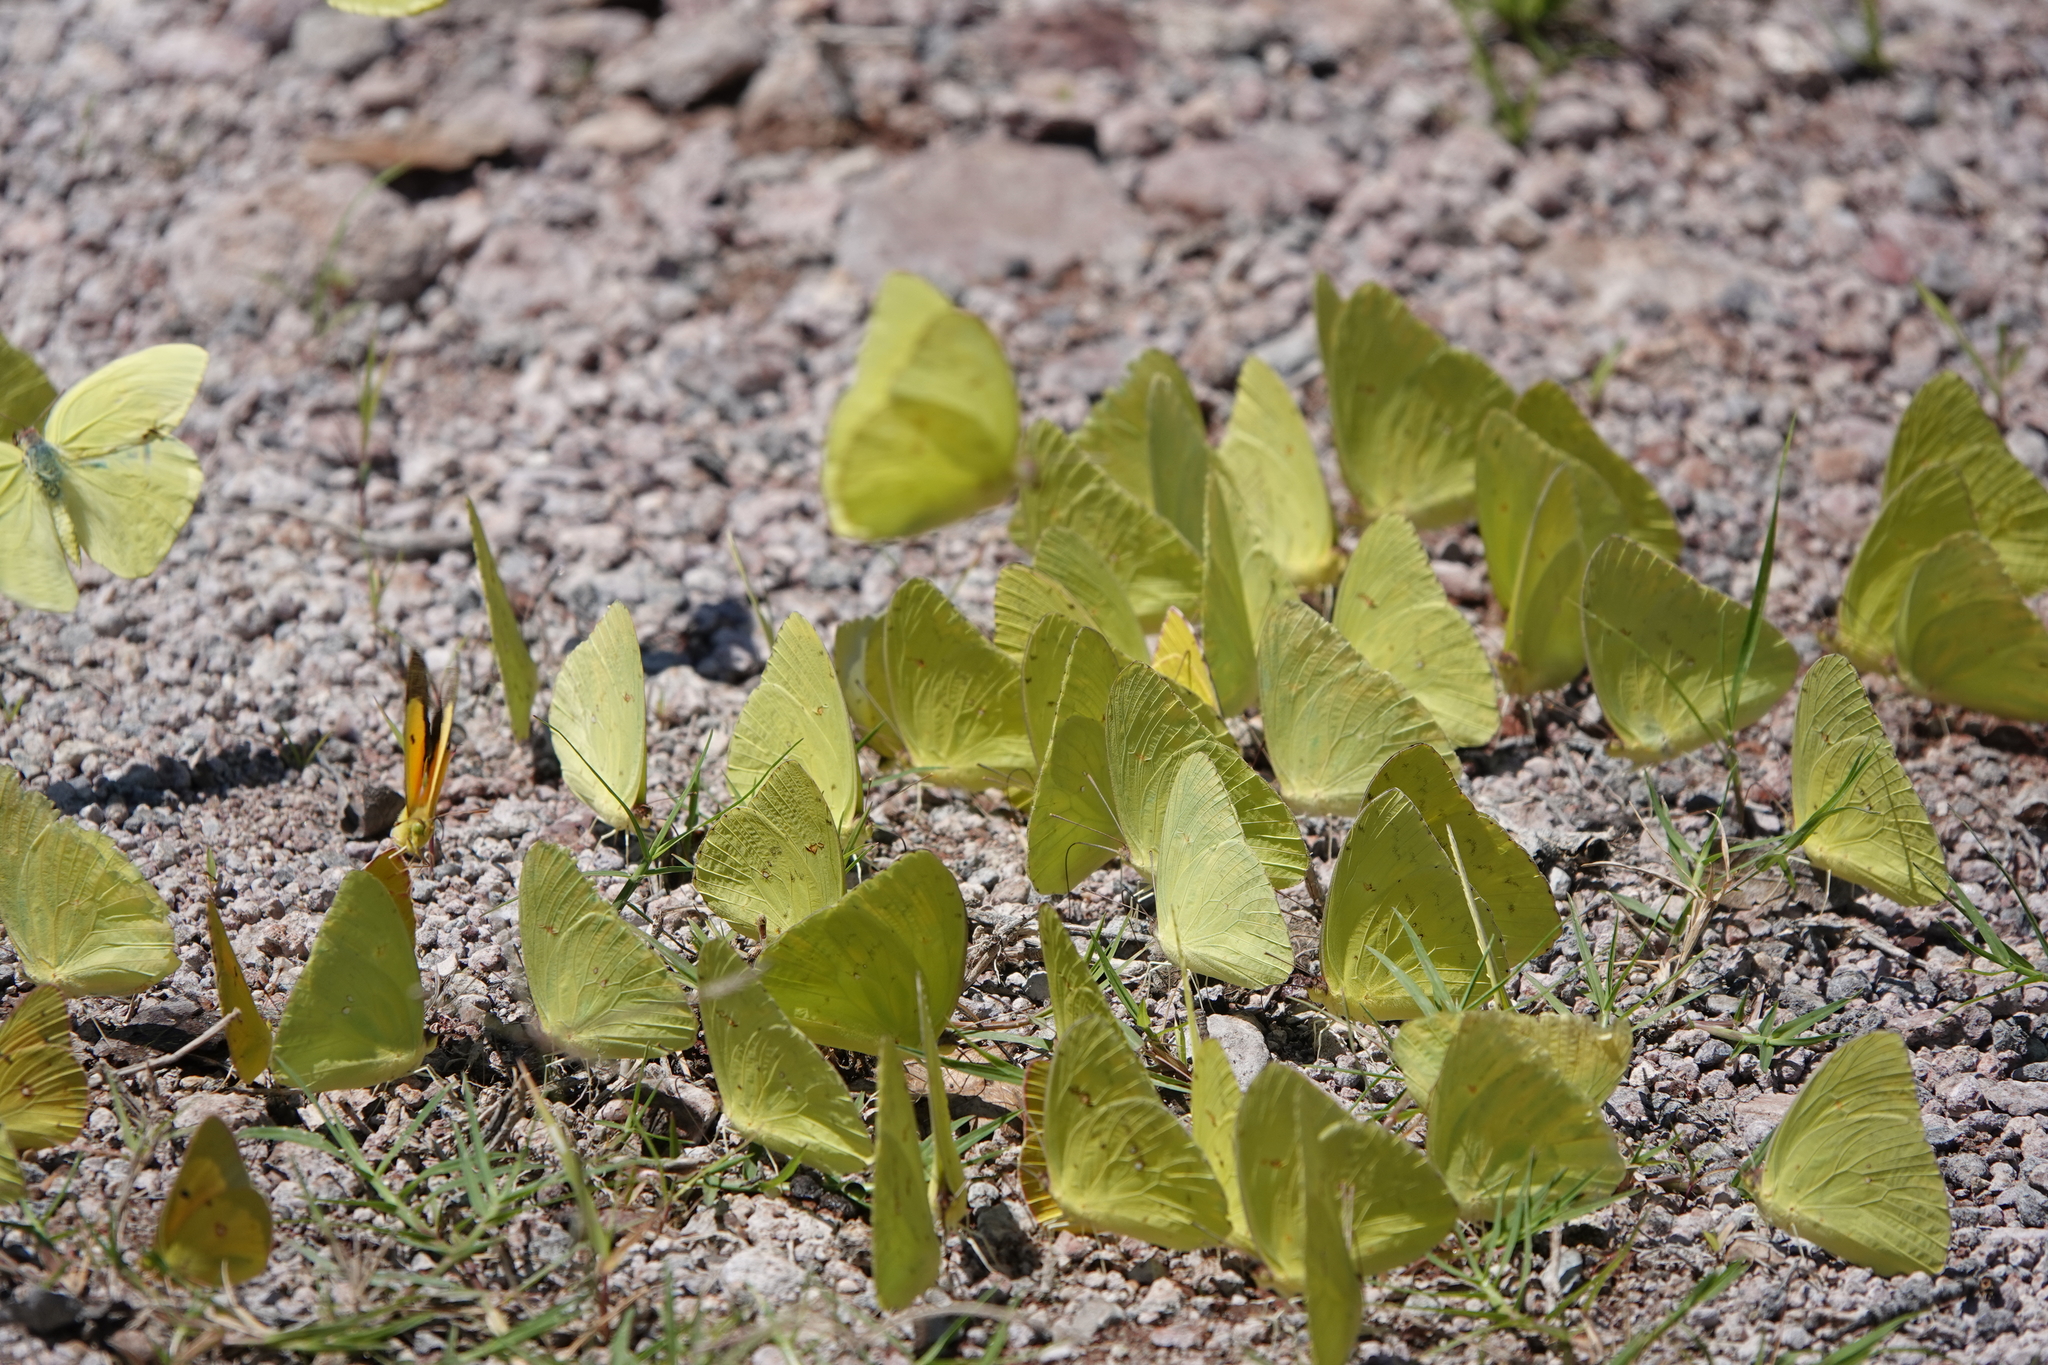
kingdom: Animalia
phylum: Arthropoda
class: Insecta
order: Lepidoptera
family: Pieridae
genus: Phoebis
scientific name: Phoebis sennae
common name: Cloudless sulphur
